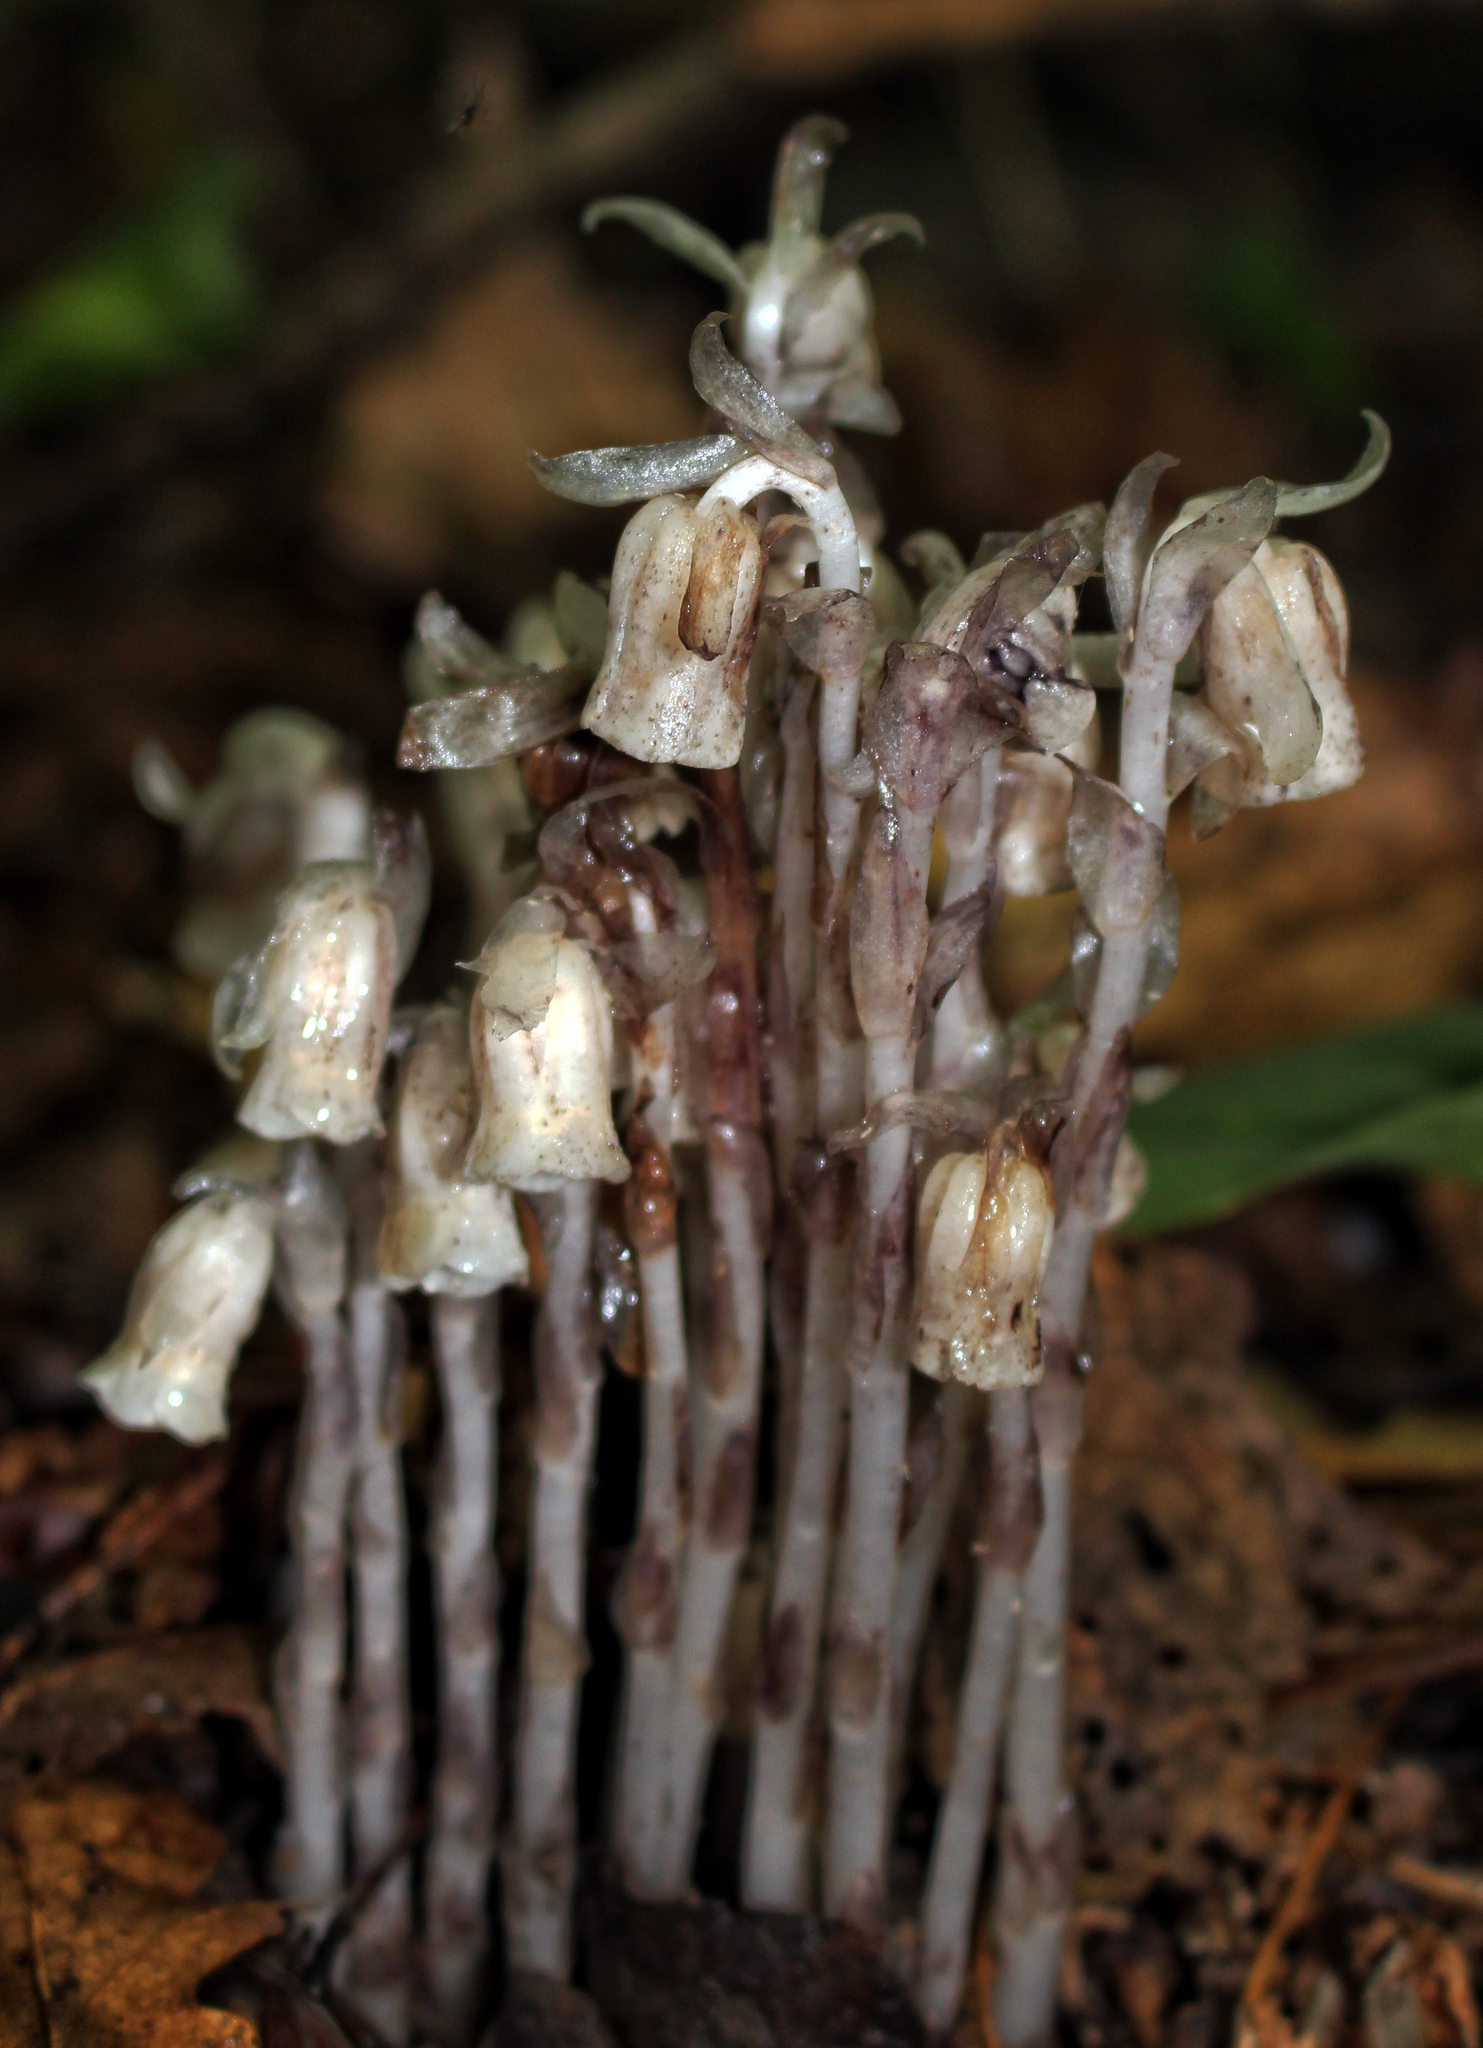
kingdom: Plantae
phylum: Tracheophyta
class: Magnoliopsida
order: Ericales
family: Ericaceae
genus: Monotropa
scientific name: Monotropa uniflora
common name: Convulsion root
